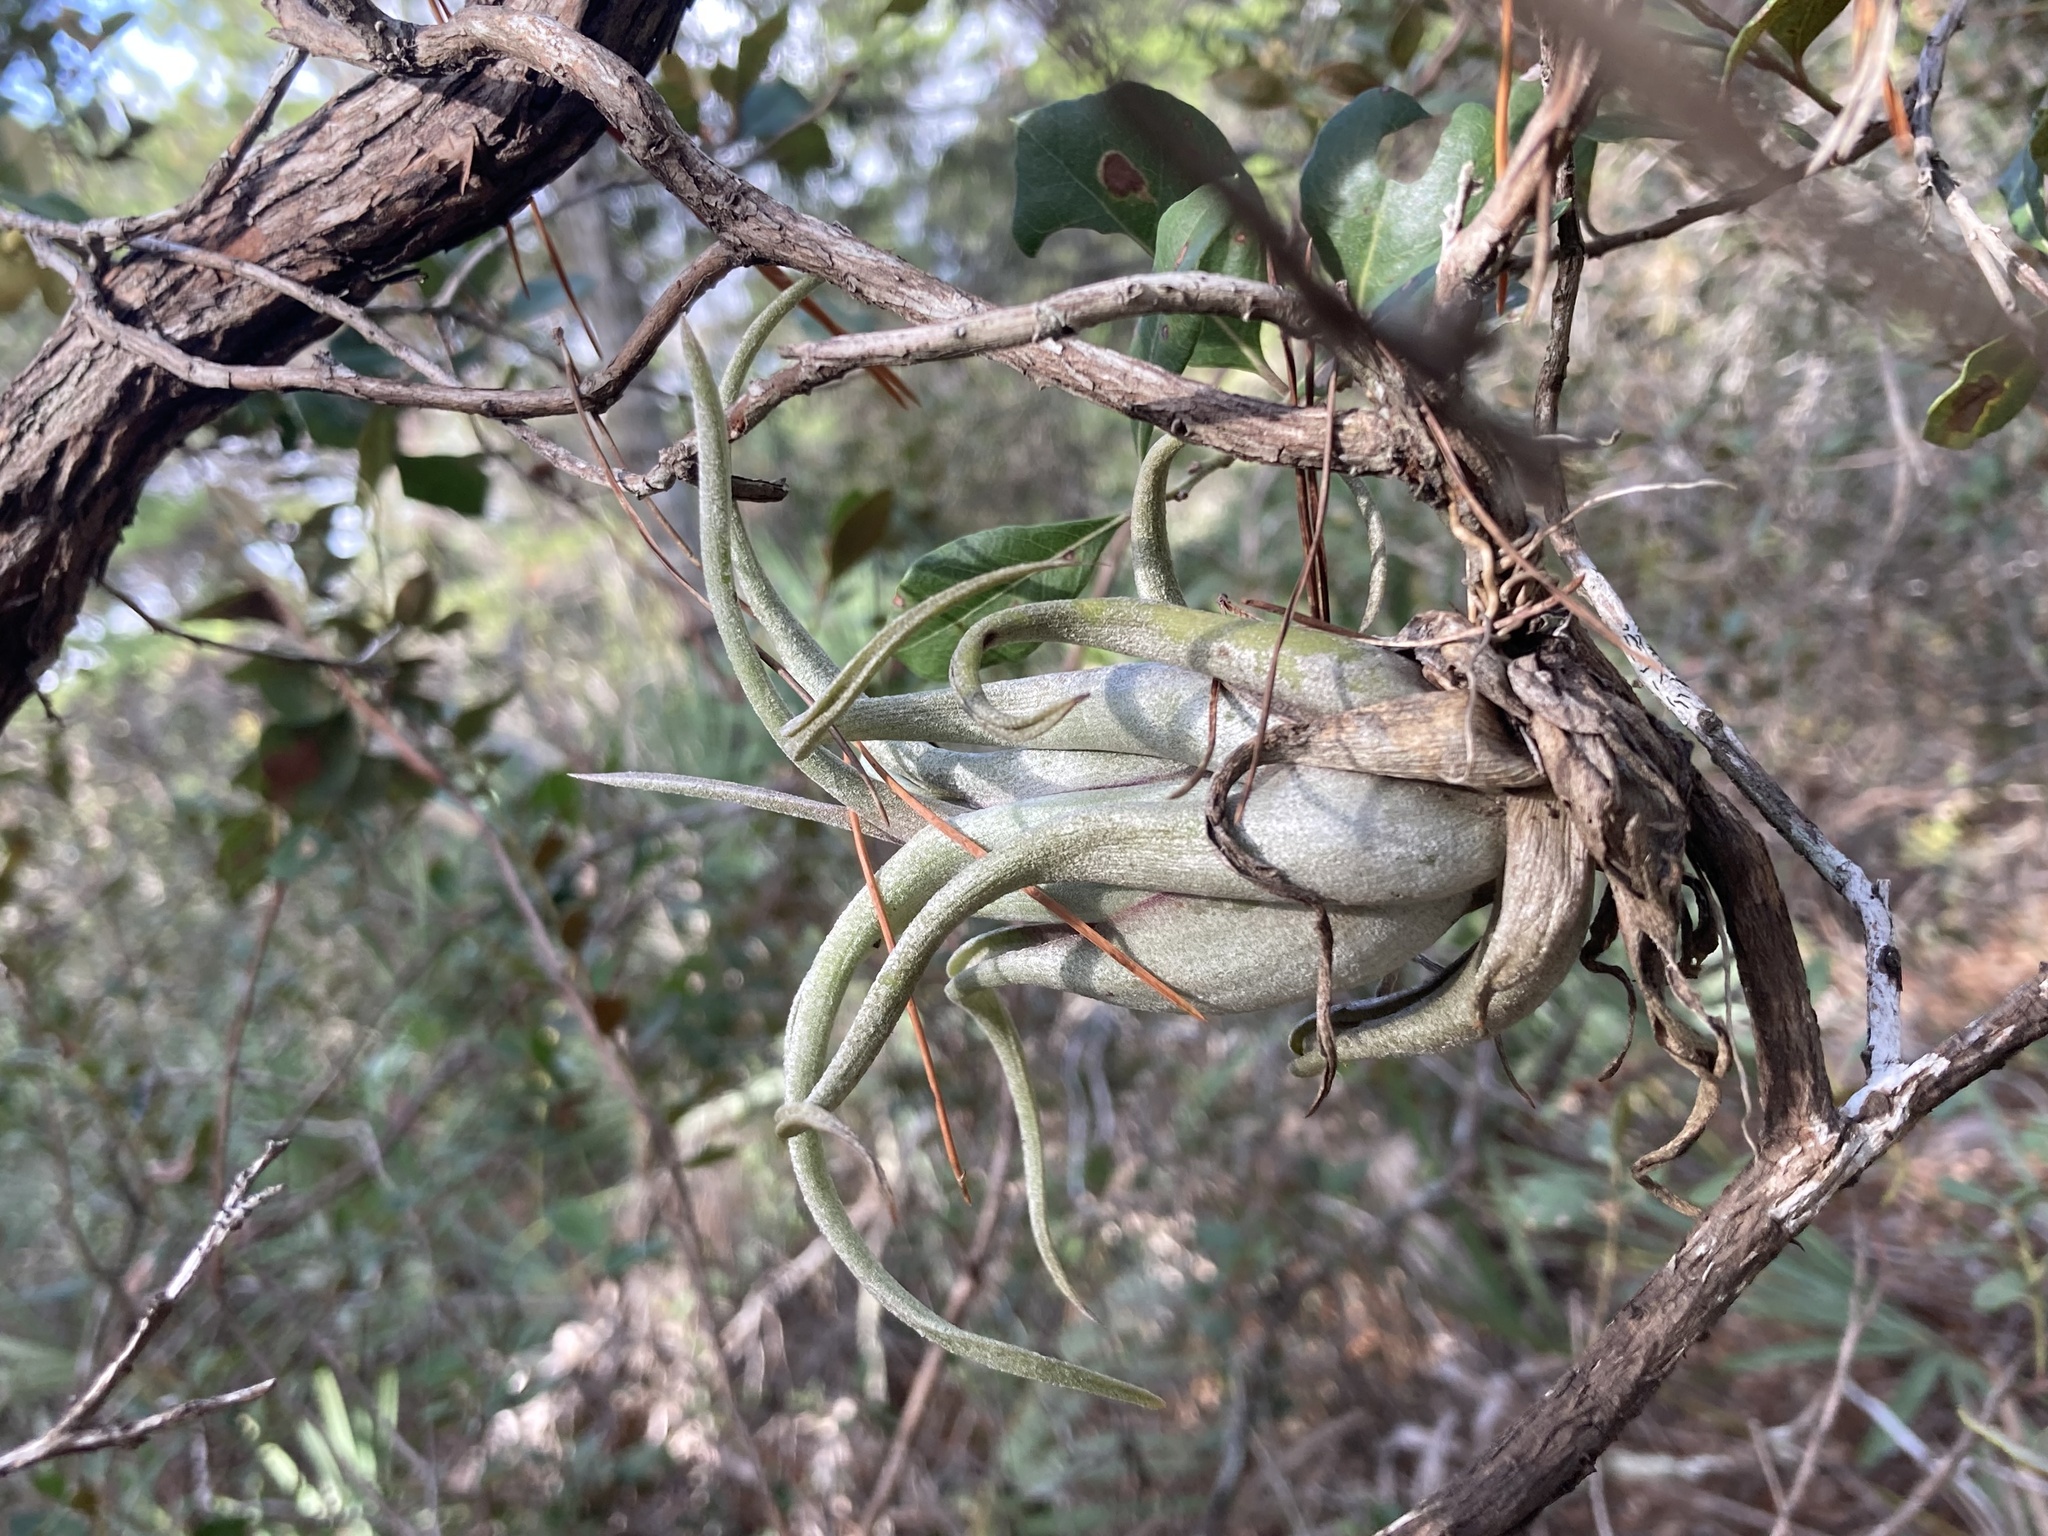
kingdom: Plantae
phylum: Tracheophyta
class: Liliopsida
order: Poales
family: Bromeliaceae
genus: Tillandsia
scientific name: Tillandsia paucifolia
